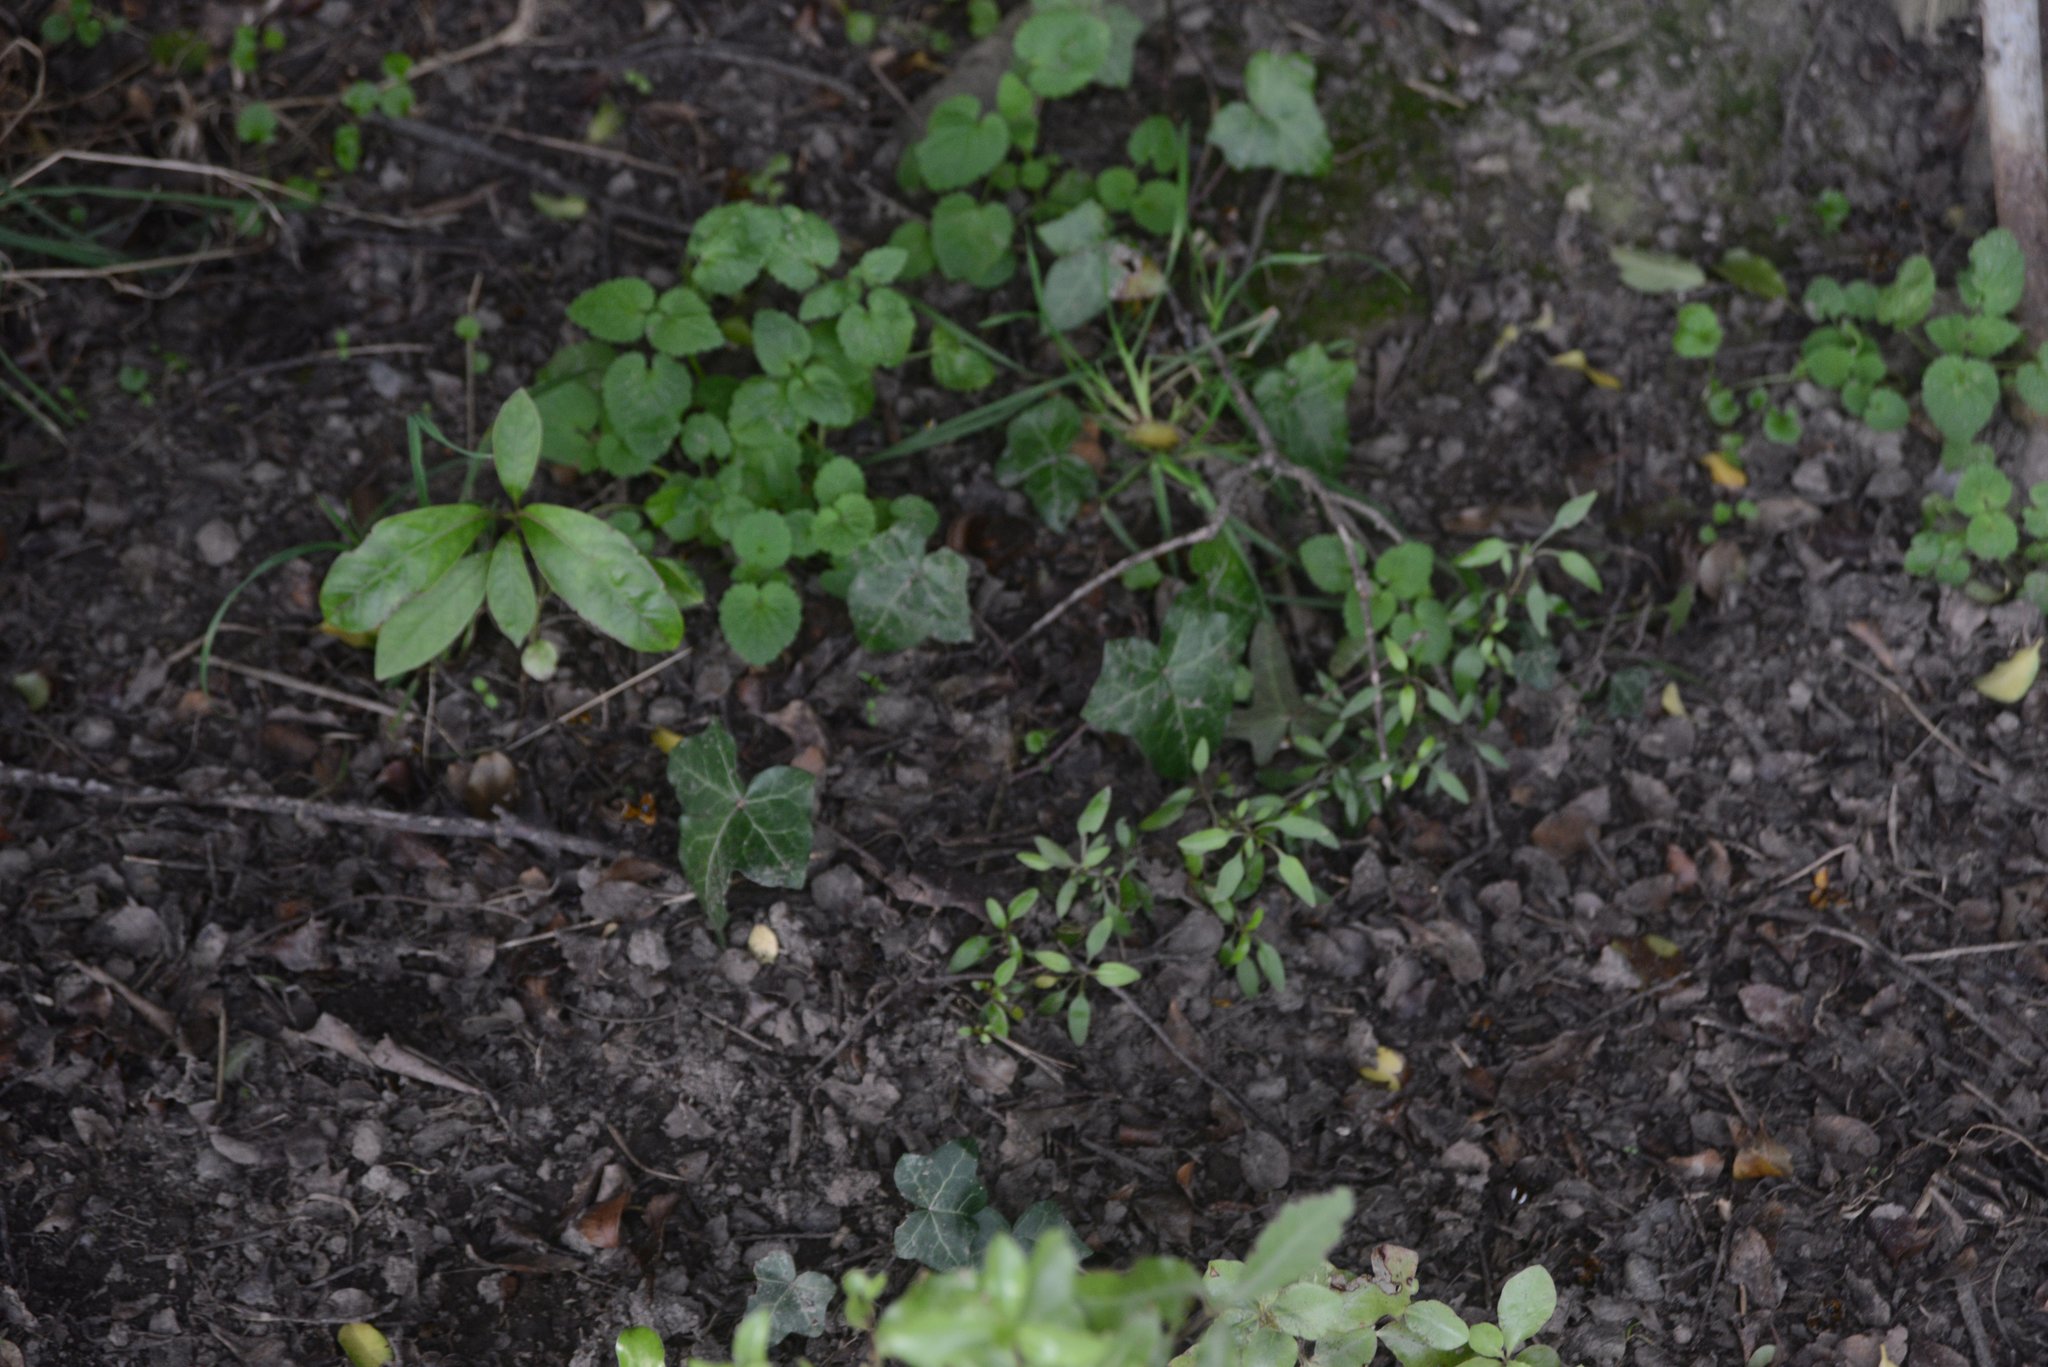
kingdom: Plantae
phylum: Tracheophyta
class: Magnoliopsida
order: Apiales
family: Araliaceae
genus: Hedera
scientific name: Hedera helix
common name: Ivy
